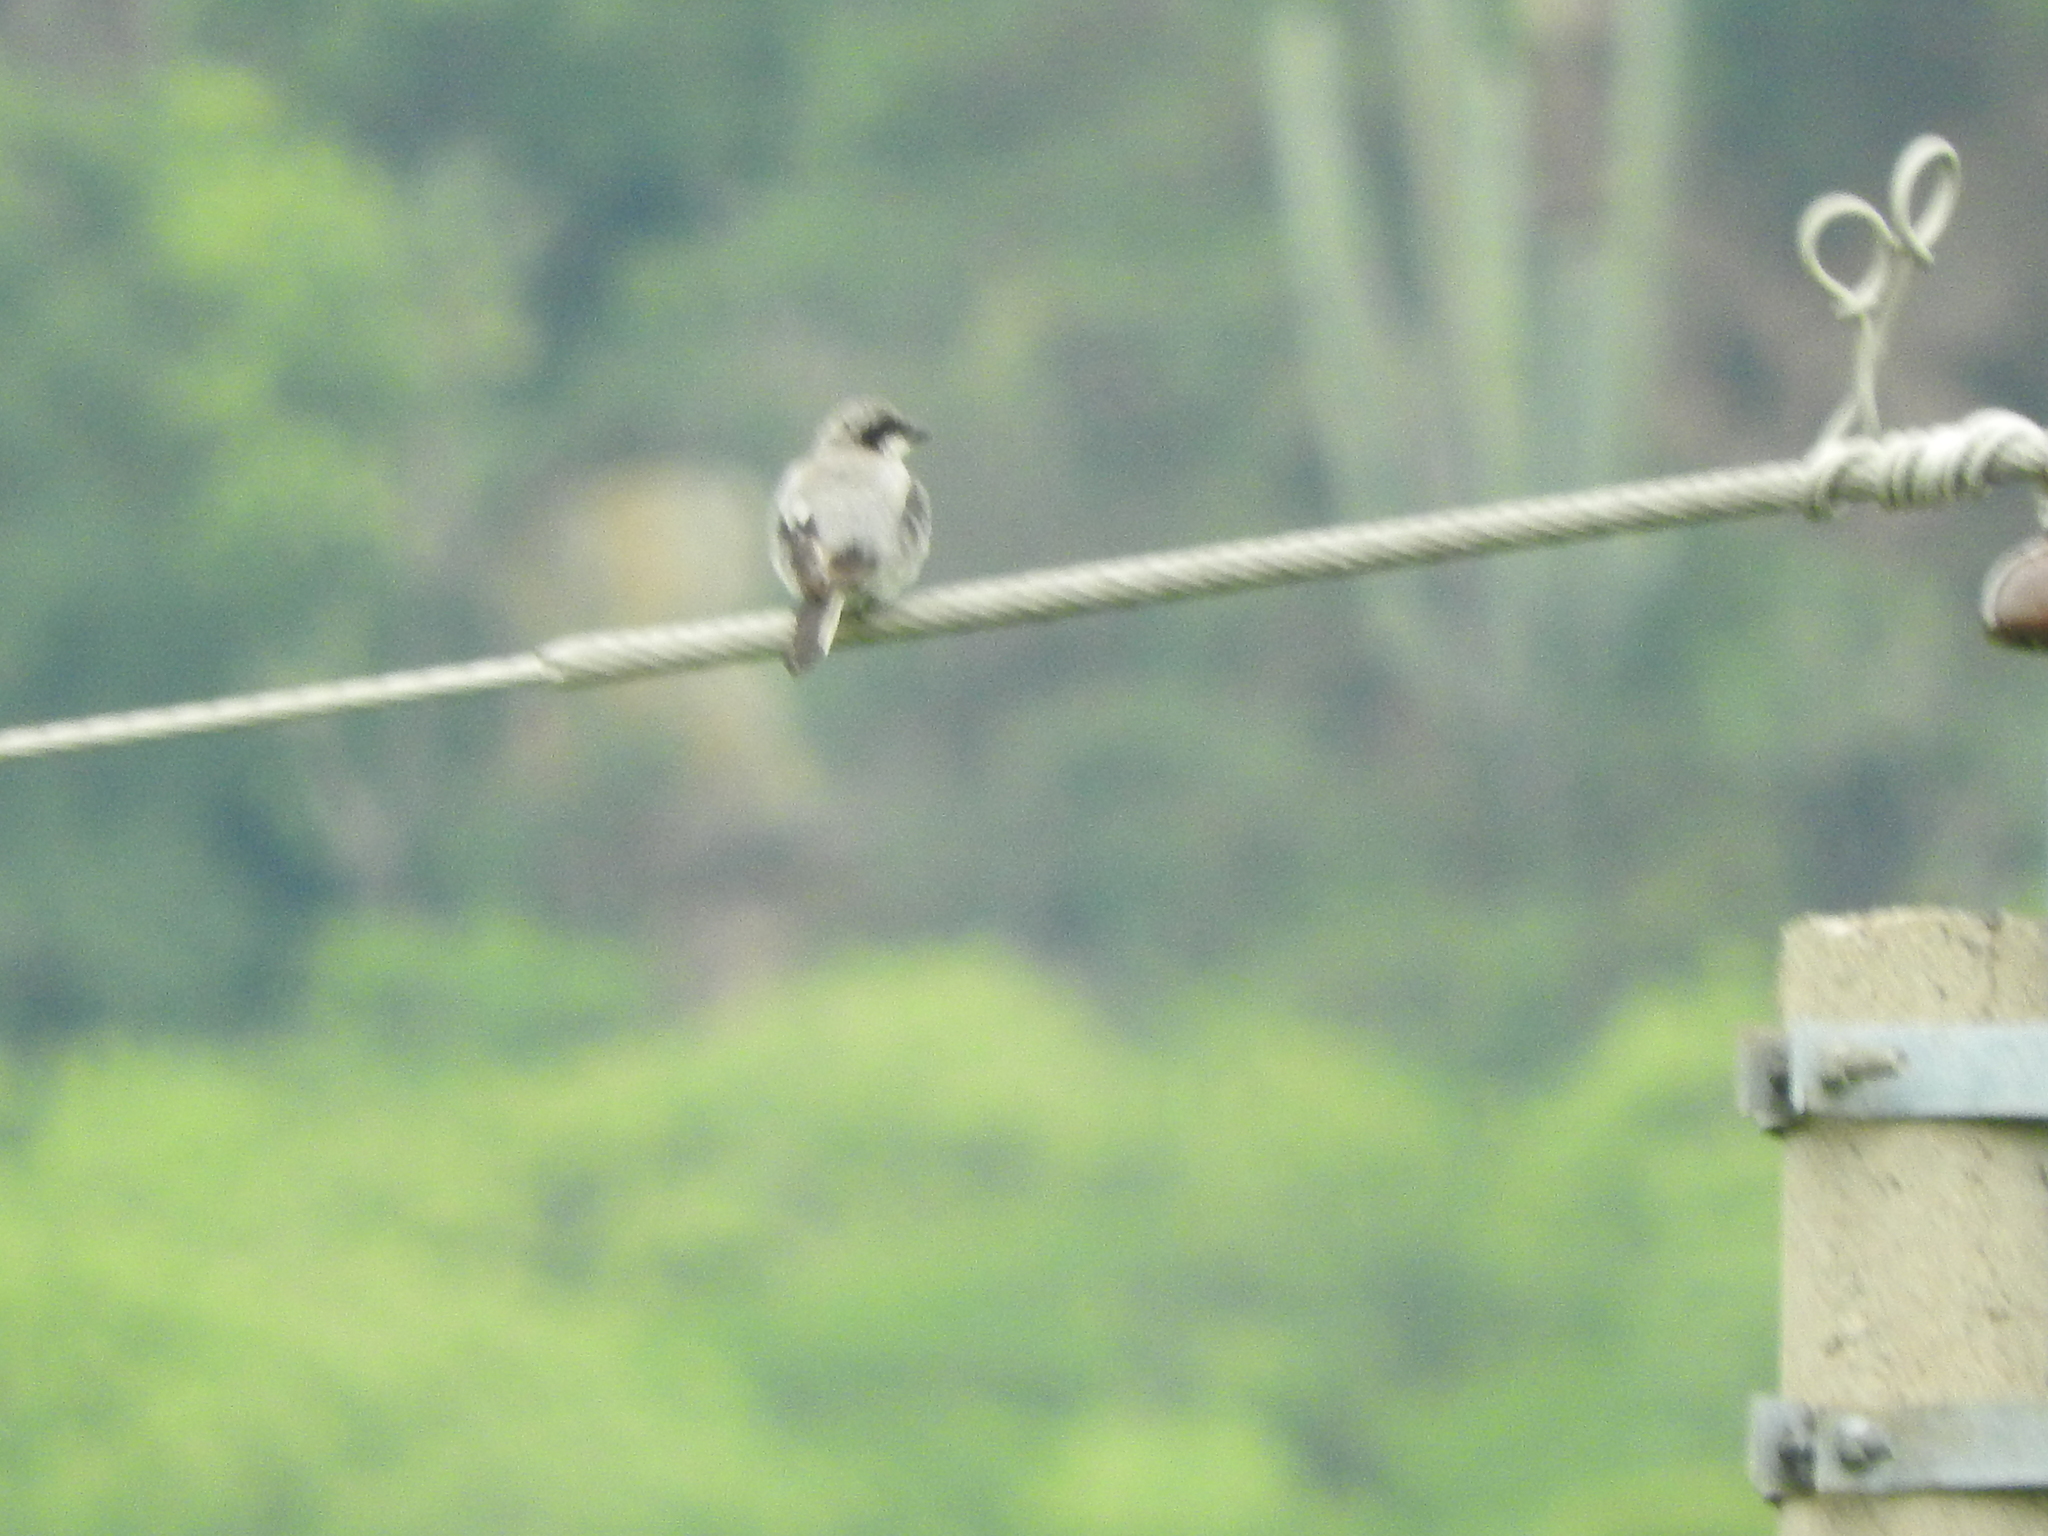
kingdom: Animalia
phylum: Chordata
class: Aves
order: Passeriformes
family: Laniidae
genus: Lanius
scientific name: Lanius ludovicianus
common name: Loggerhead shrike
